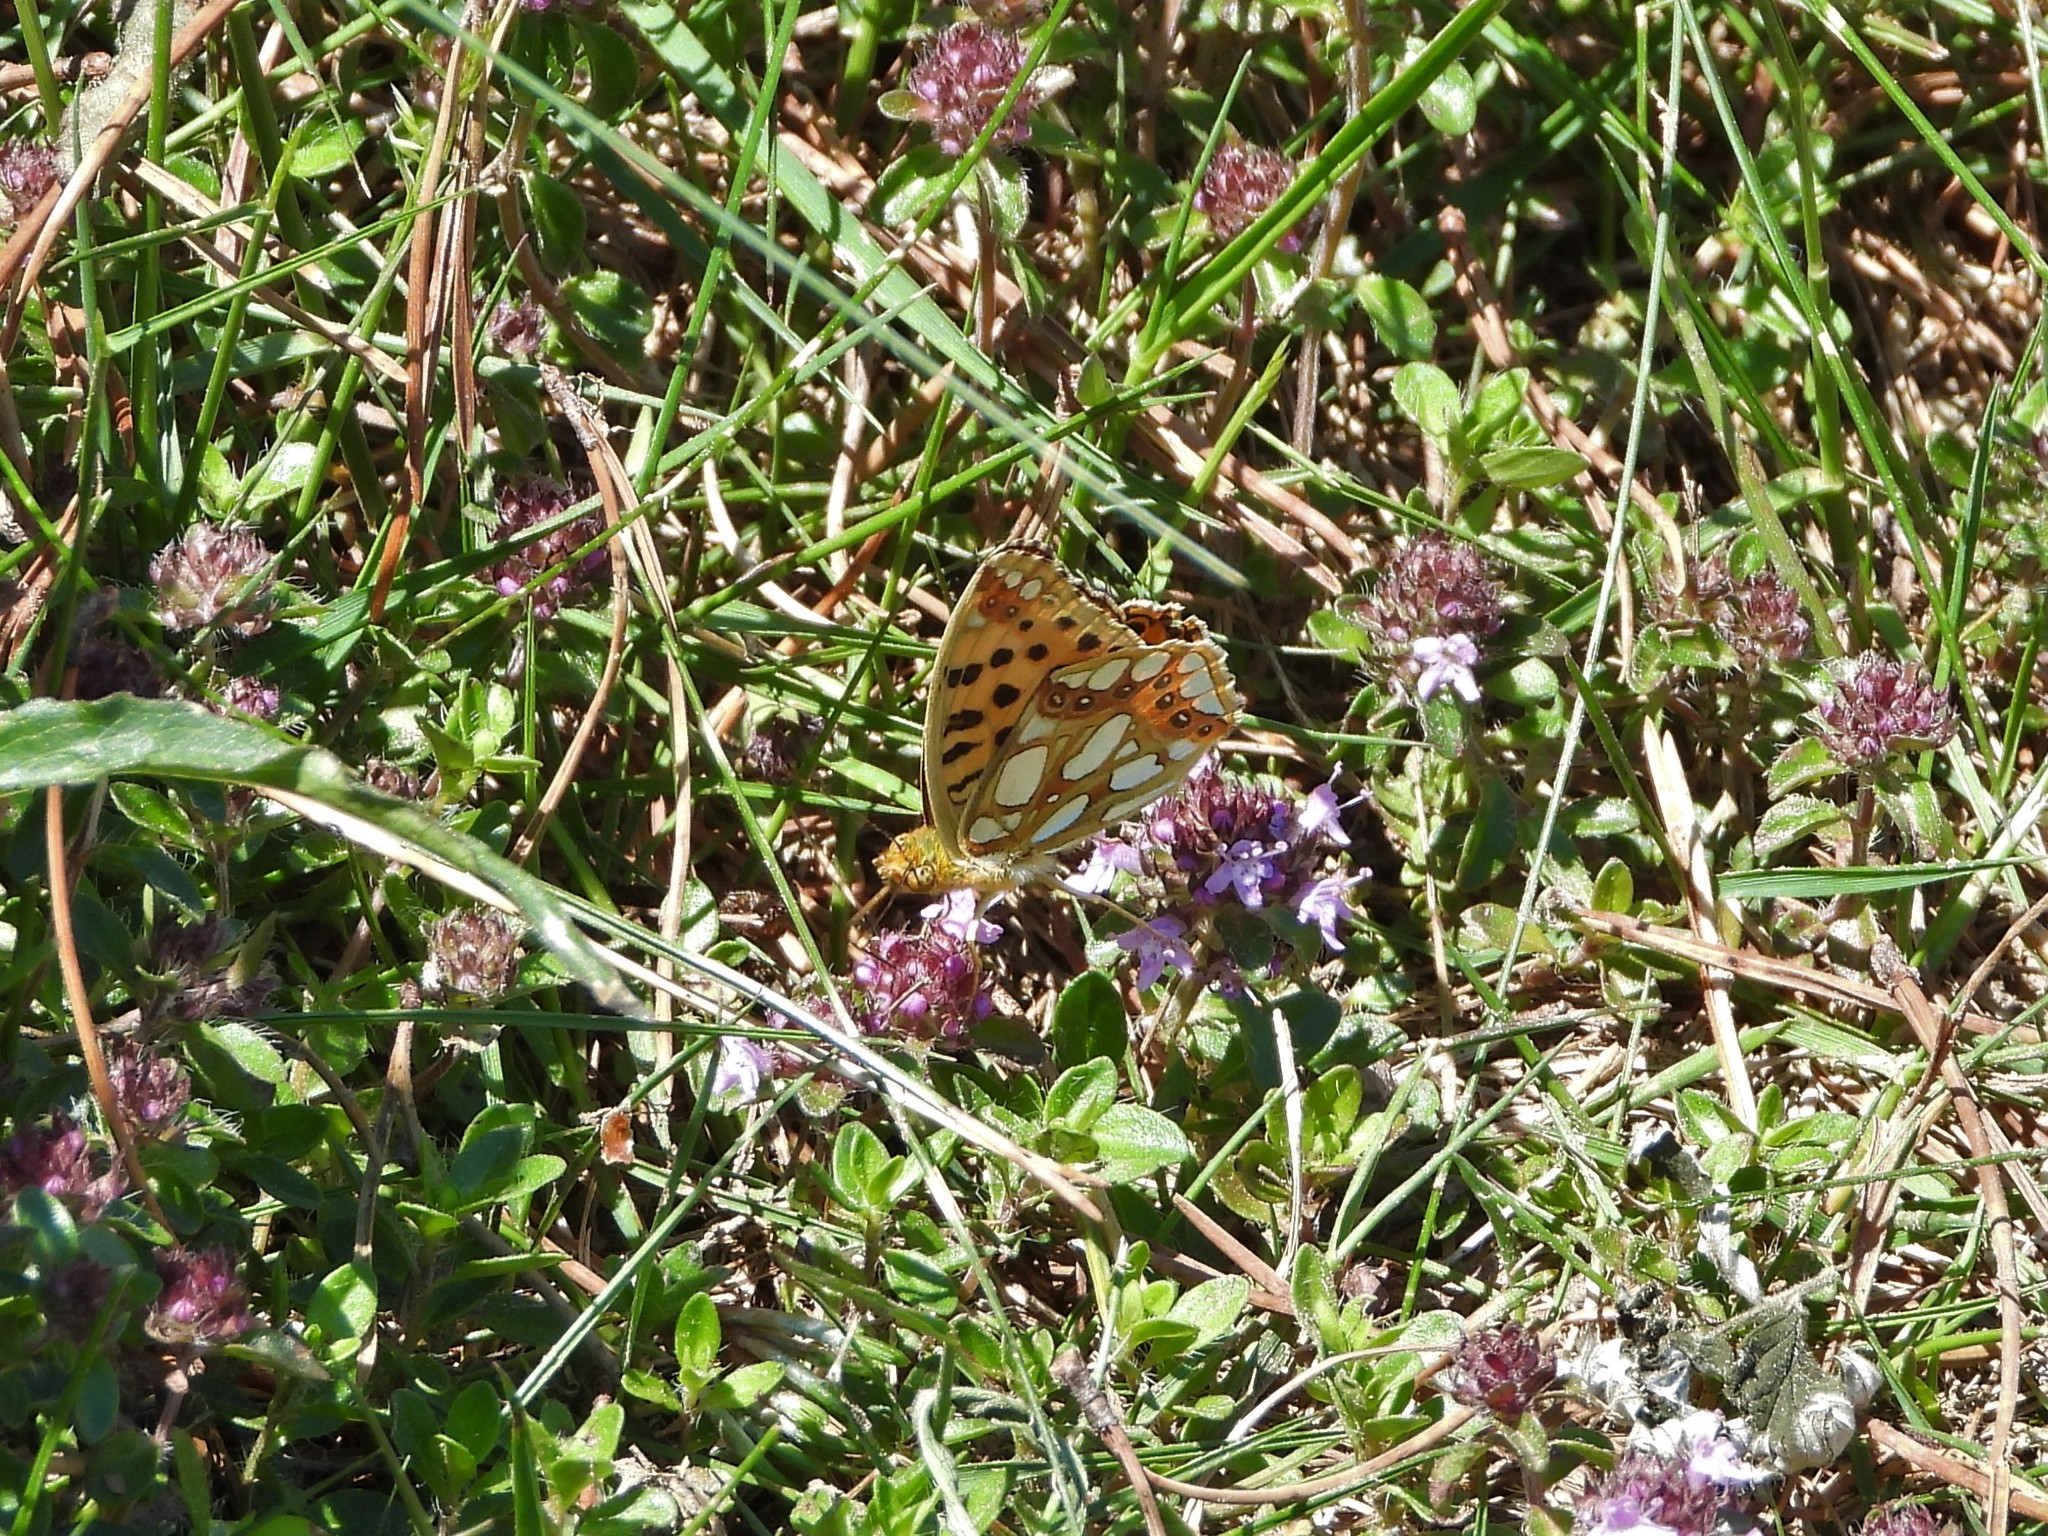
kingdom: Animalia
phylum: Arthropoda
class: Insecta
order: Lepidoptera
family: Nymphalidae
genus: Issoria
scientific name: Issoria lathonia
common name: Queen of spain fritillary
